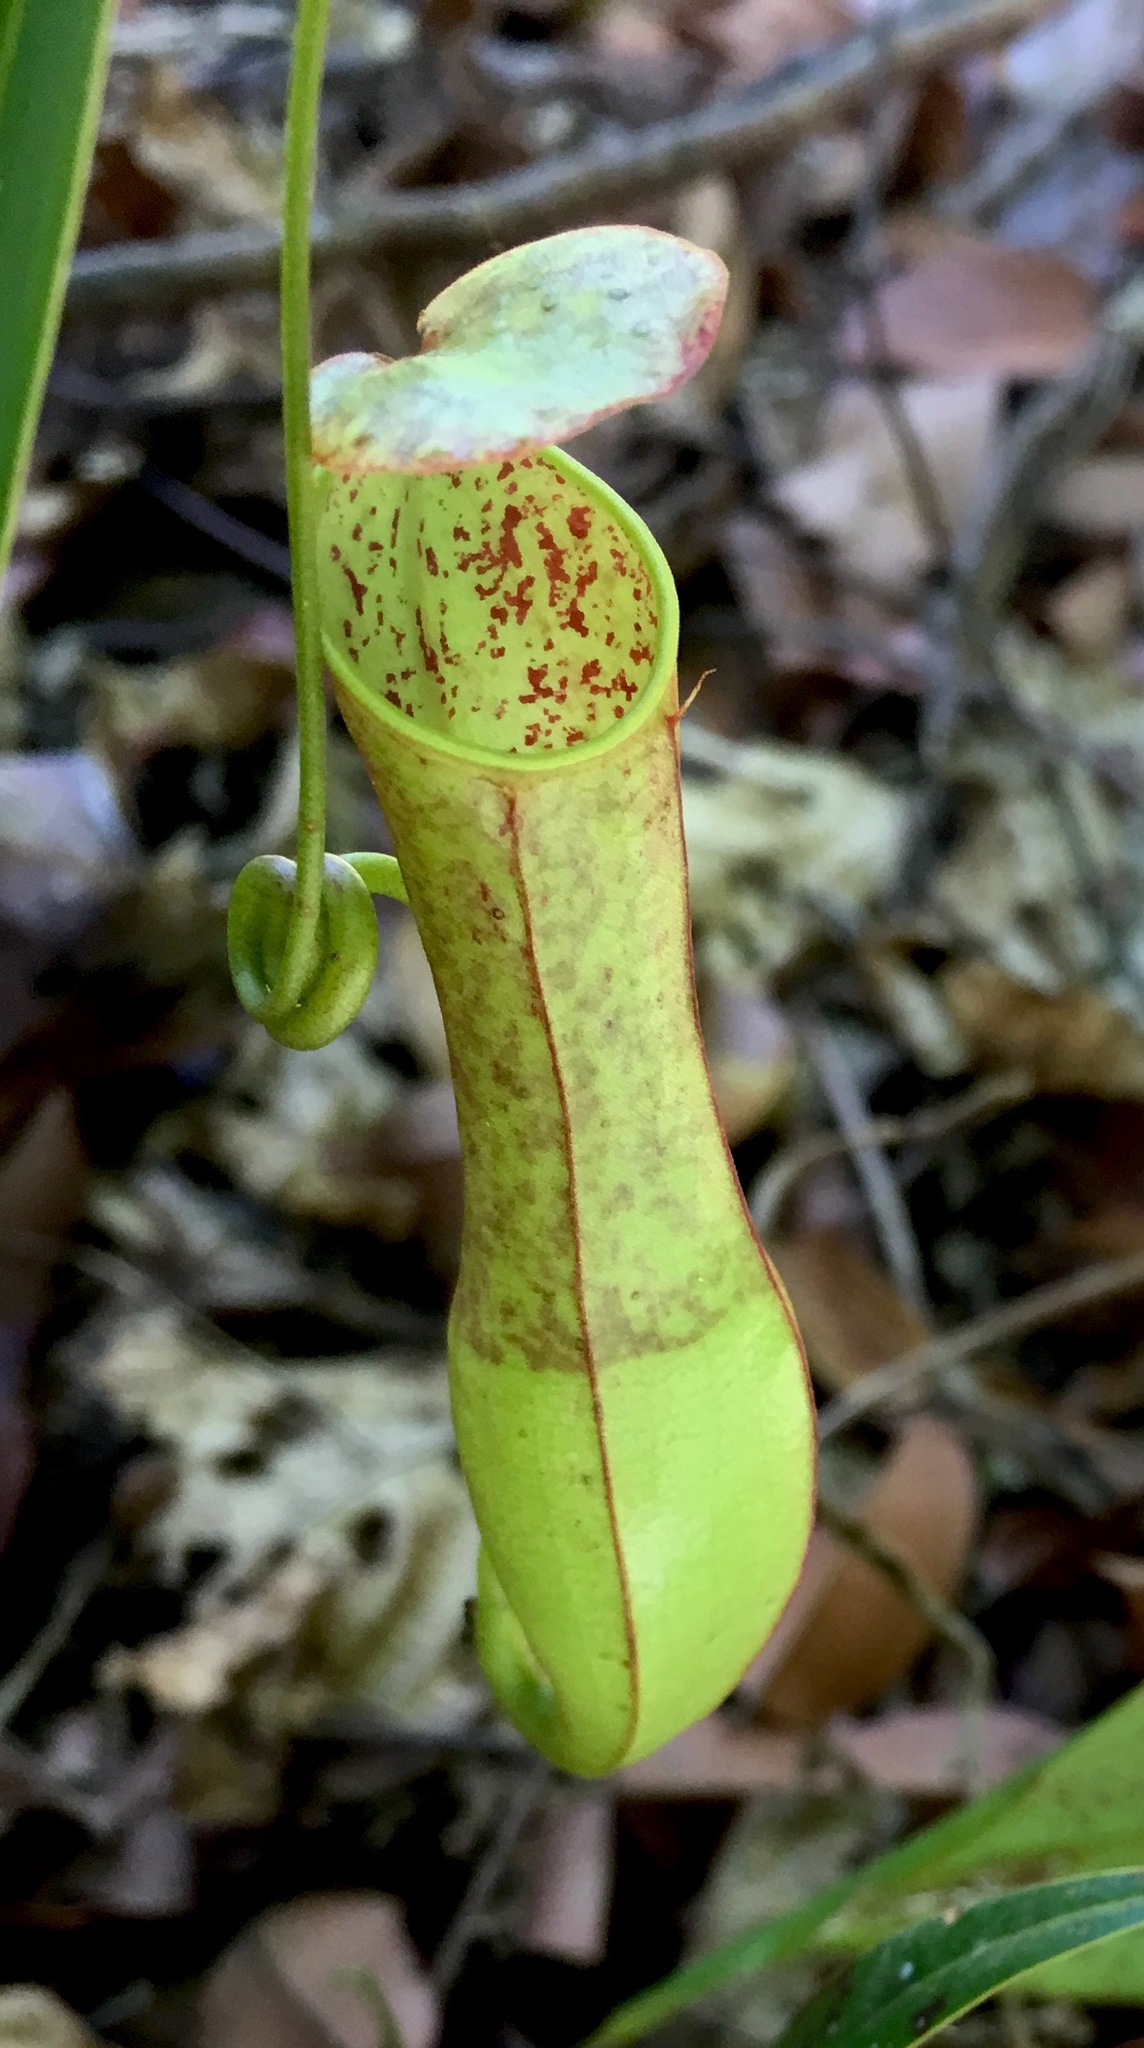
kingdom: Plantae
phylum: Tracheophyta
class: Magnoliopsida
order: Caryophyllales
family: Nepenthaceae
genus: Nepenthes
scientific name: Nepenthes gracilis
